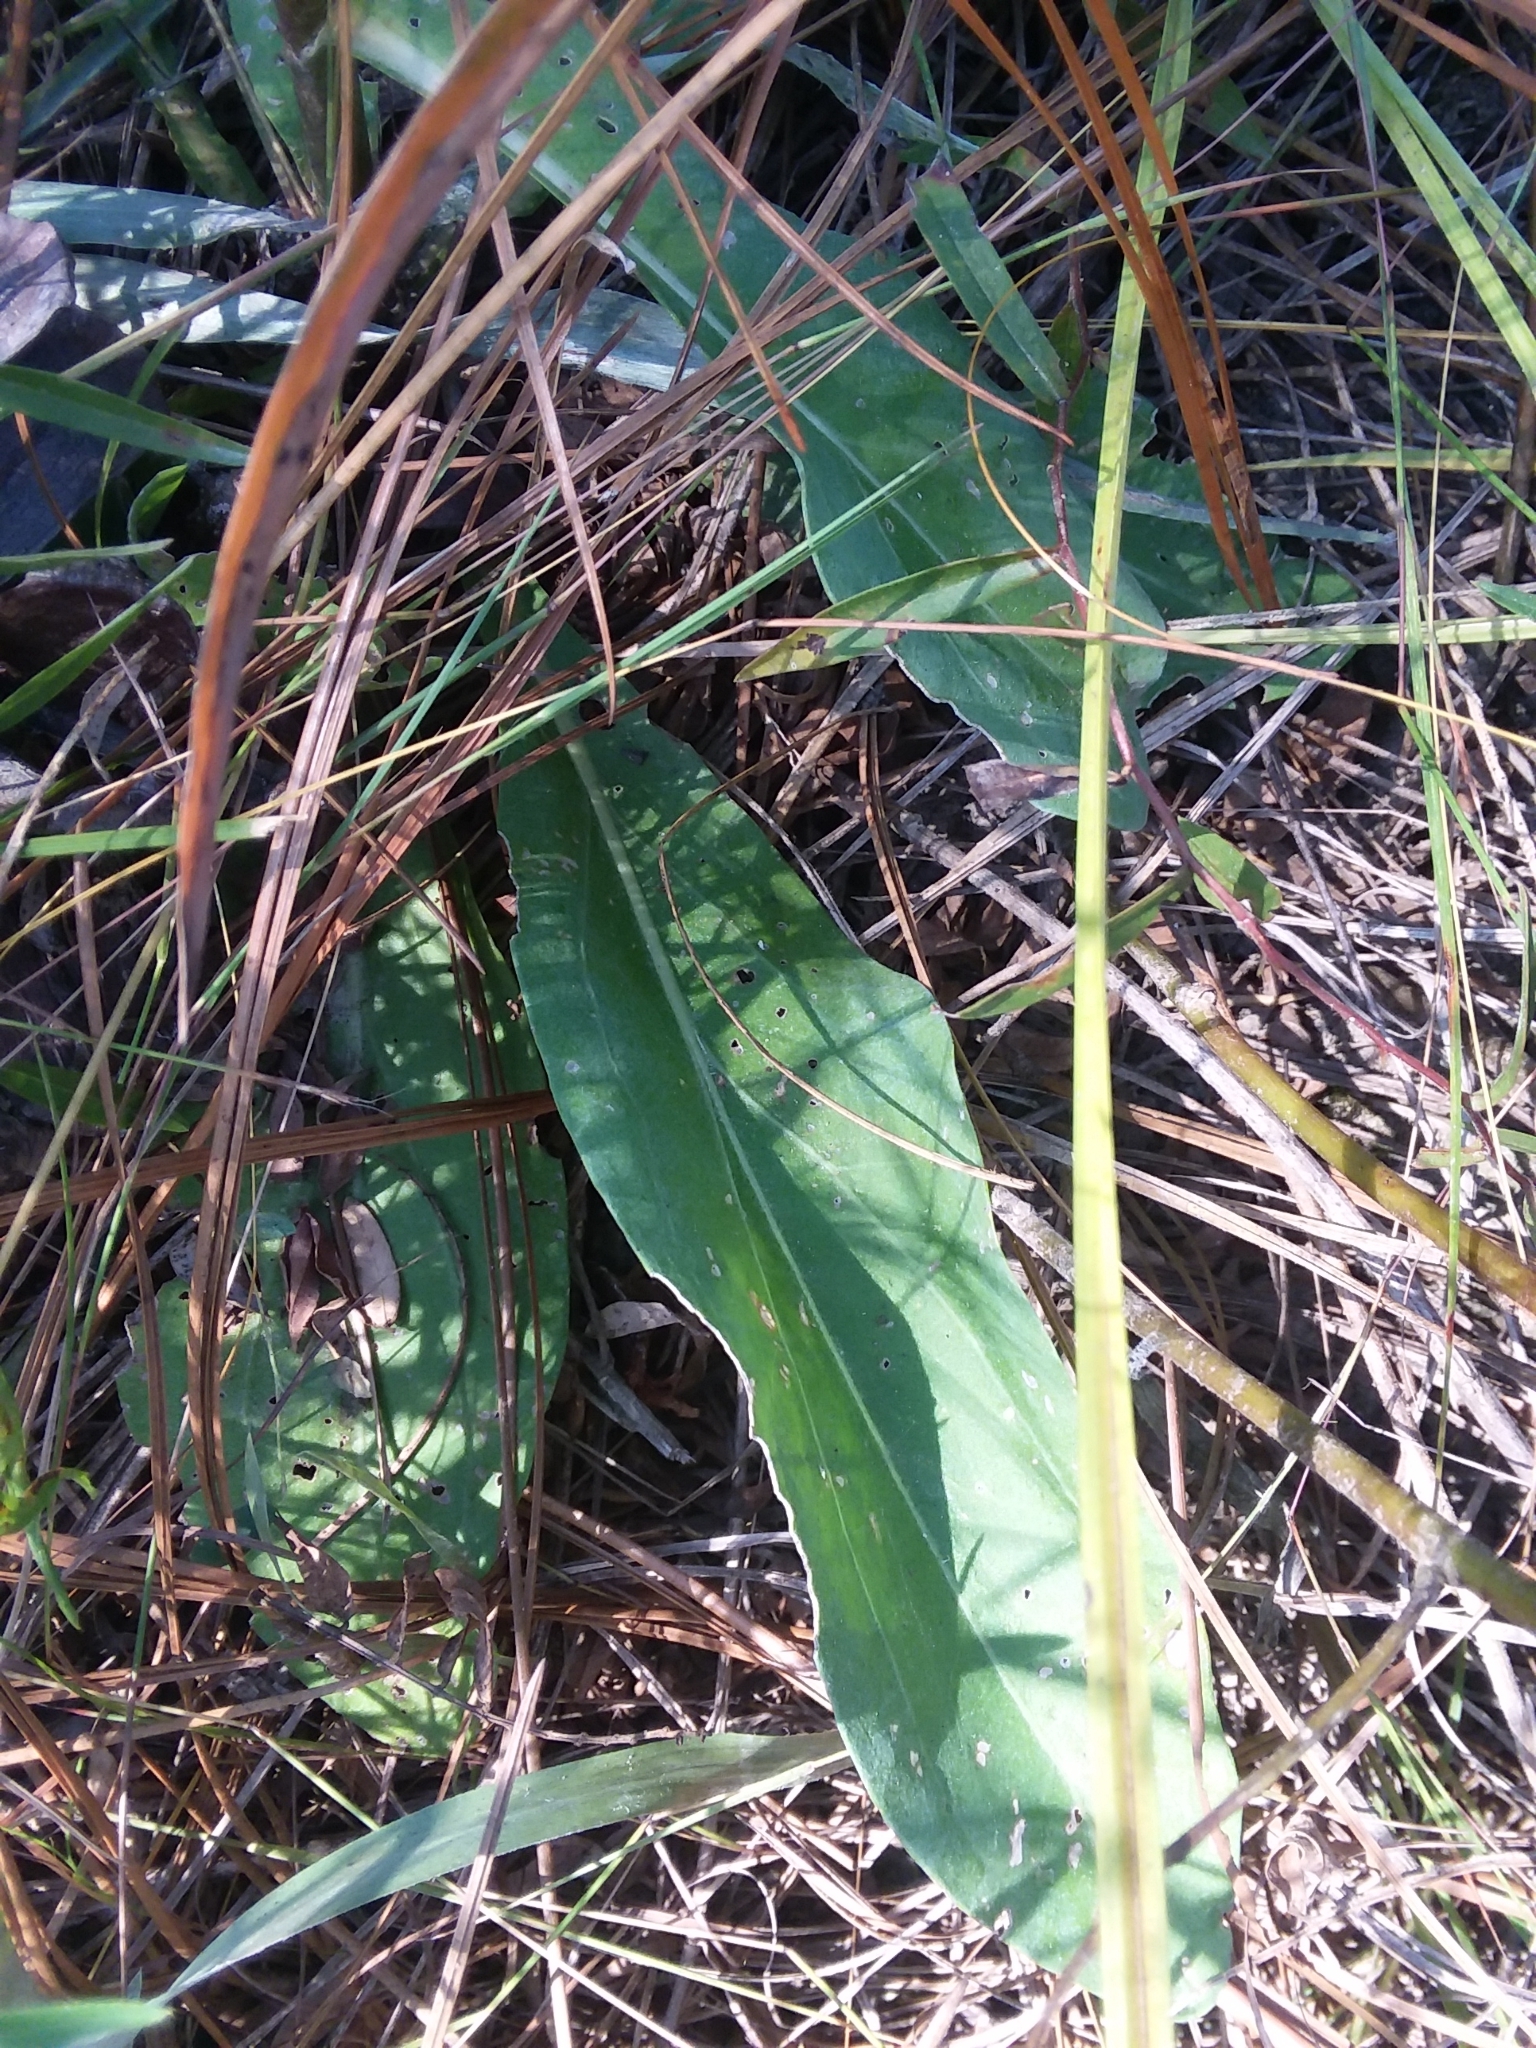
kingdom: Plantae
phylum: Tracheophyta
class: Magnoliopsida
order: Asterales
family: Asteraceae
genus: Carphephorus
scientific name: Carphephorus odoratissimus
